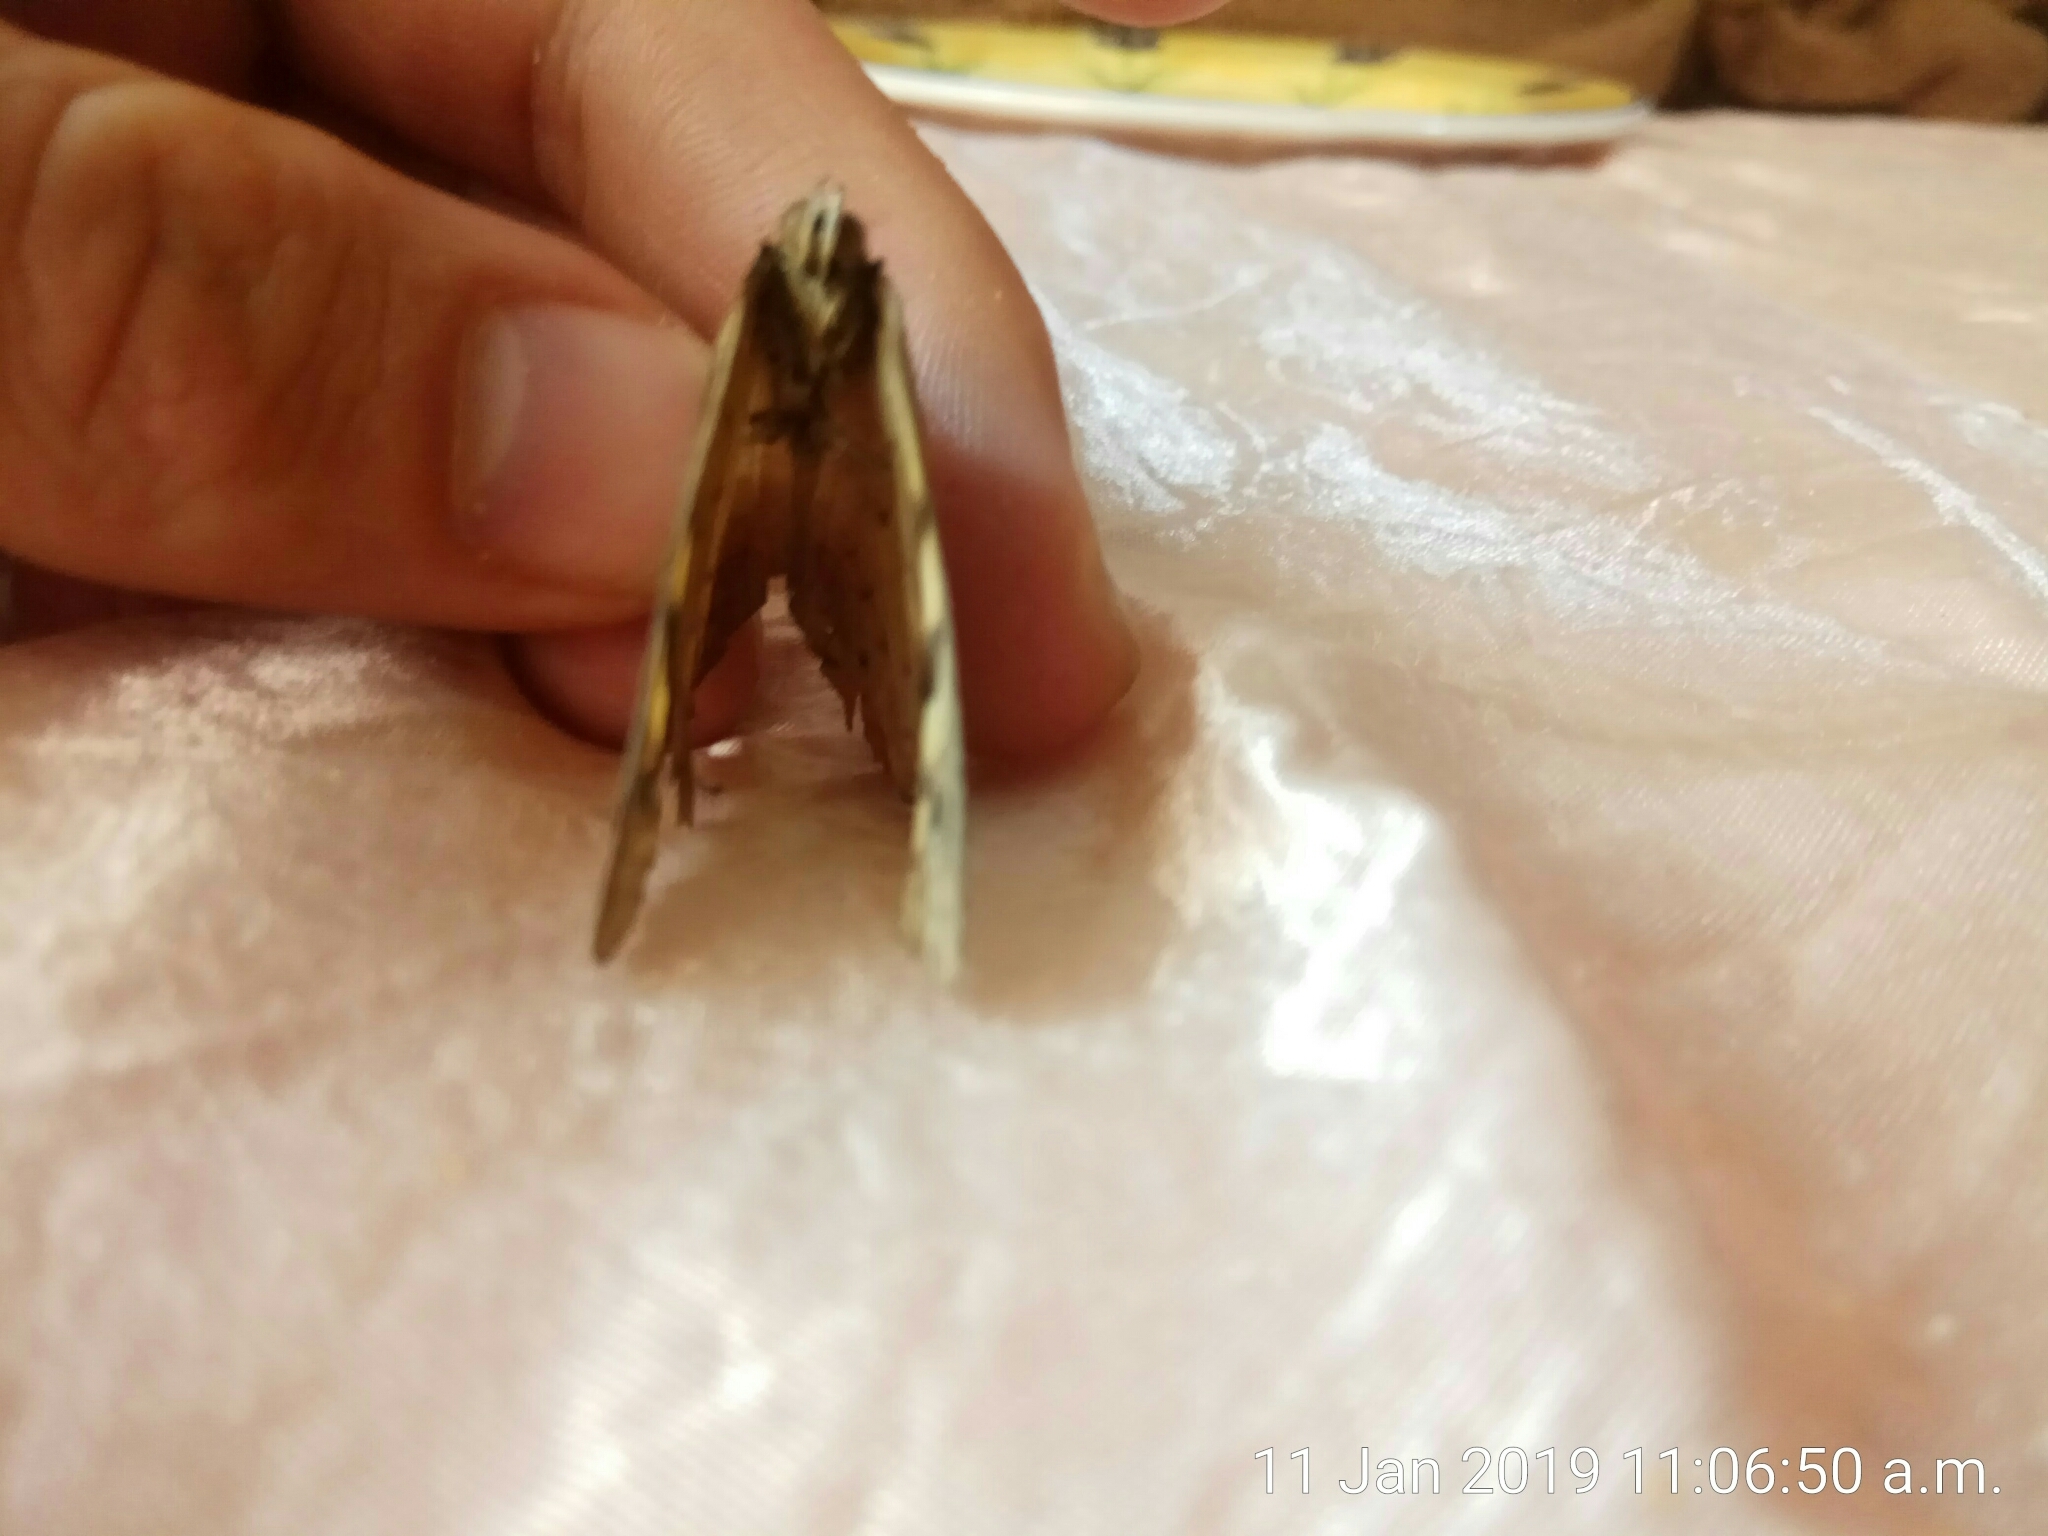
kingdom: Animalia
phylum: Arthropoda
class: Insecta
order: Lepidoptera
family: Nymphalidae
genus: Heteronympha
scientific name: Heteronympha merope
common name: Common brown
